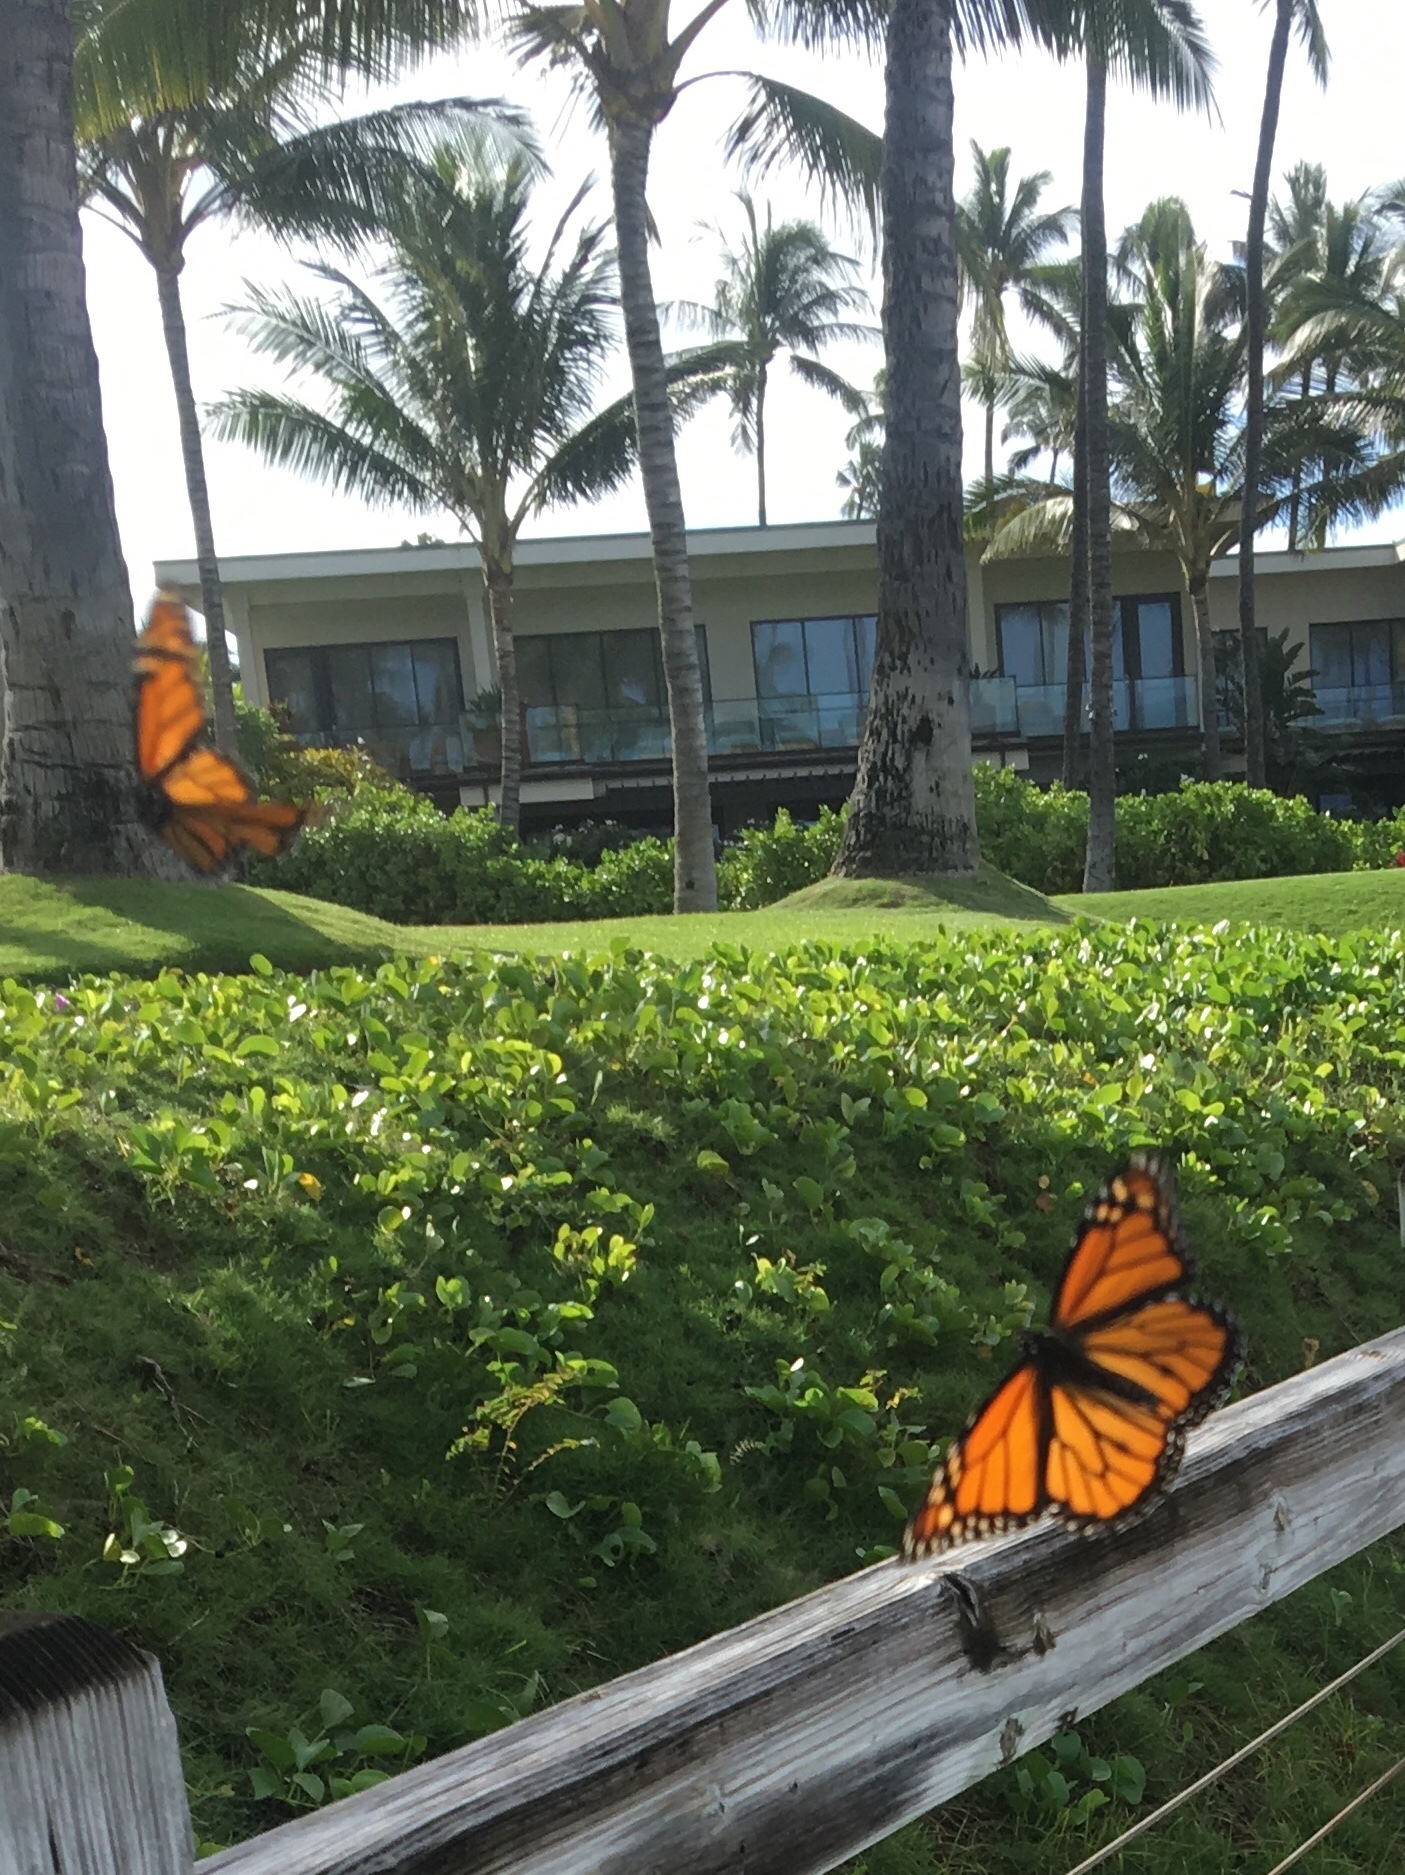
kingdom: Animalia
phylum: Arthropoda
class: Insecta
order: Lepidoptera
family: Nymphalidae
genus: Danaus
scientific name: Danaus plexippus
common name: Monarch
